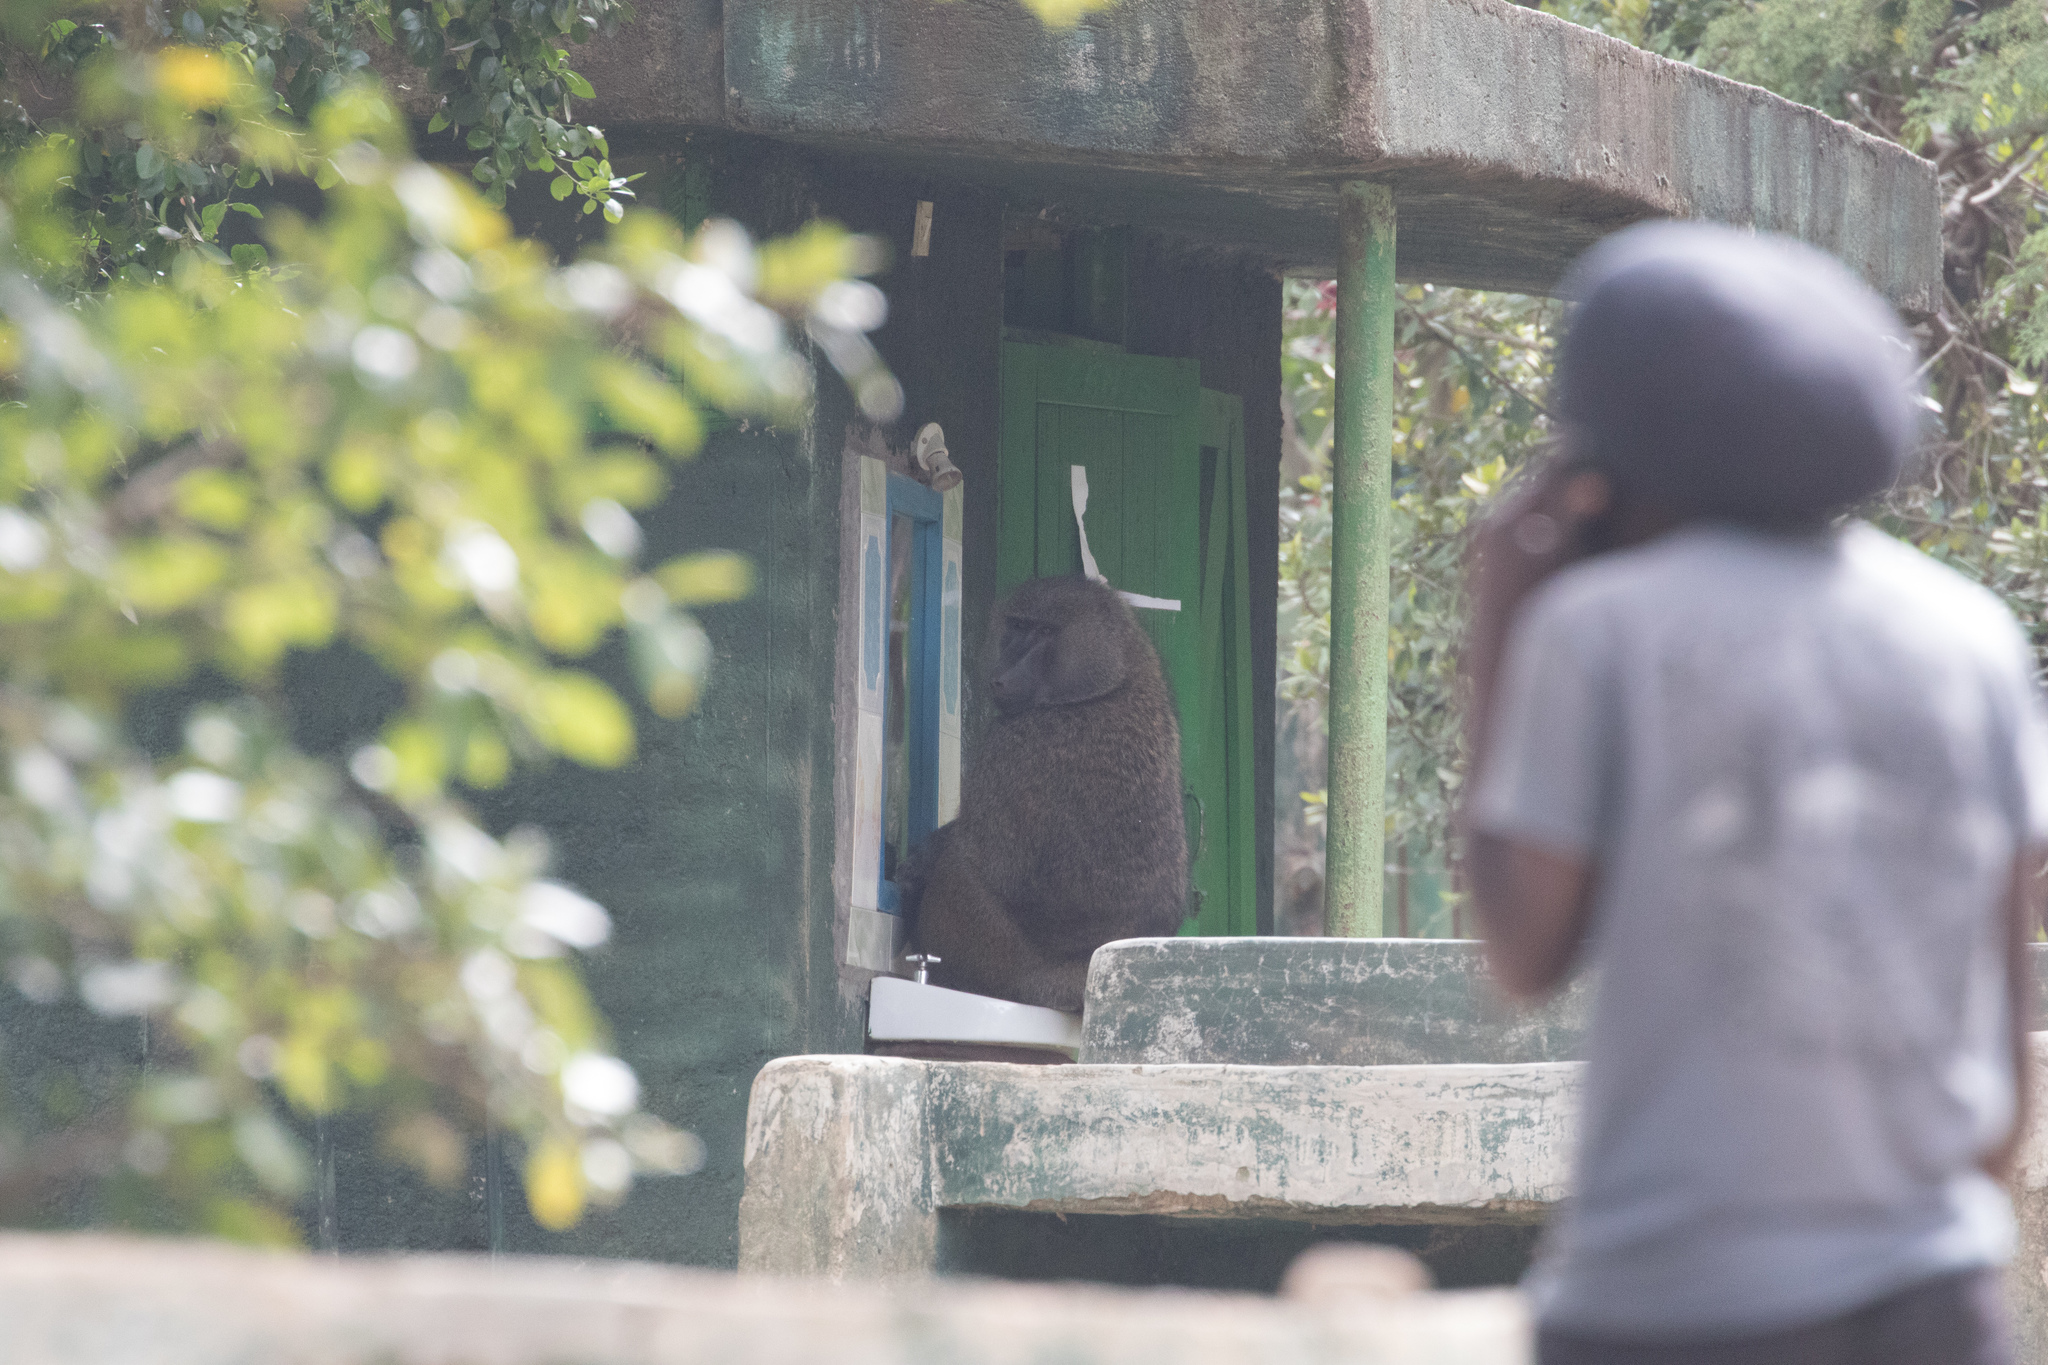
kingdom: Animalia
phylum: Chordata
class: Mammalia
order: Primates
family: Cercopithecidae
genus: Papio
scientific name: Papio anubis
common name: Olive baboon
